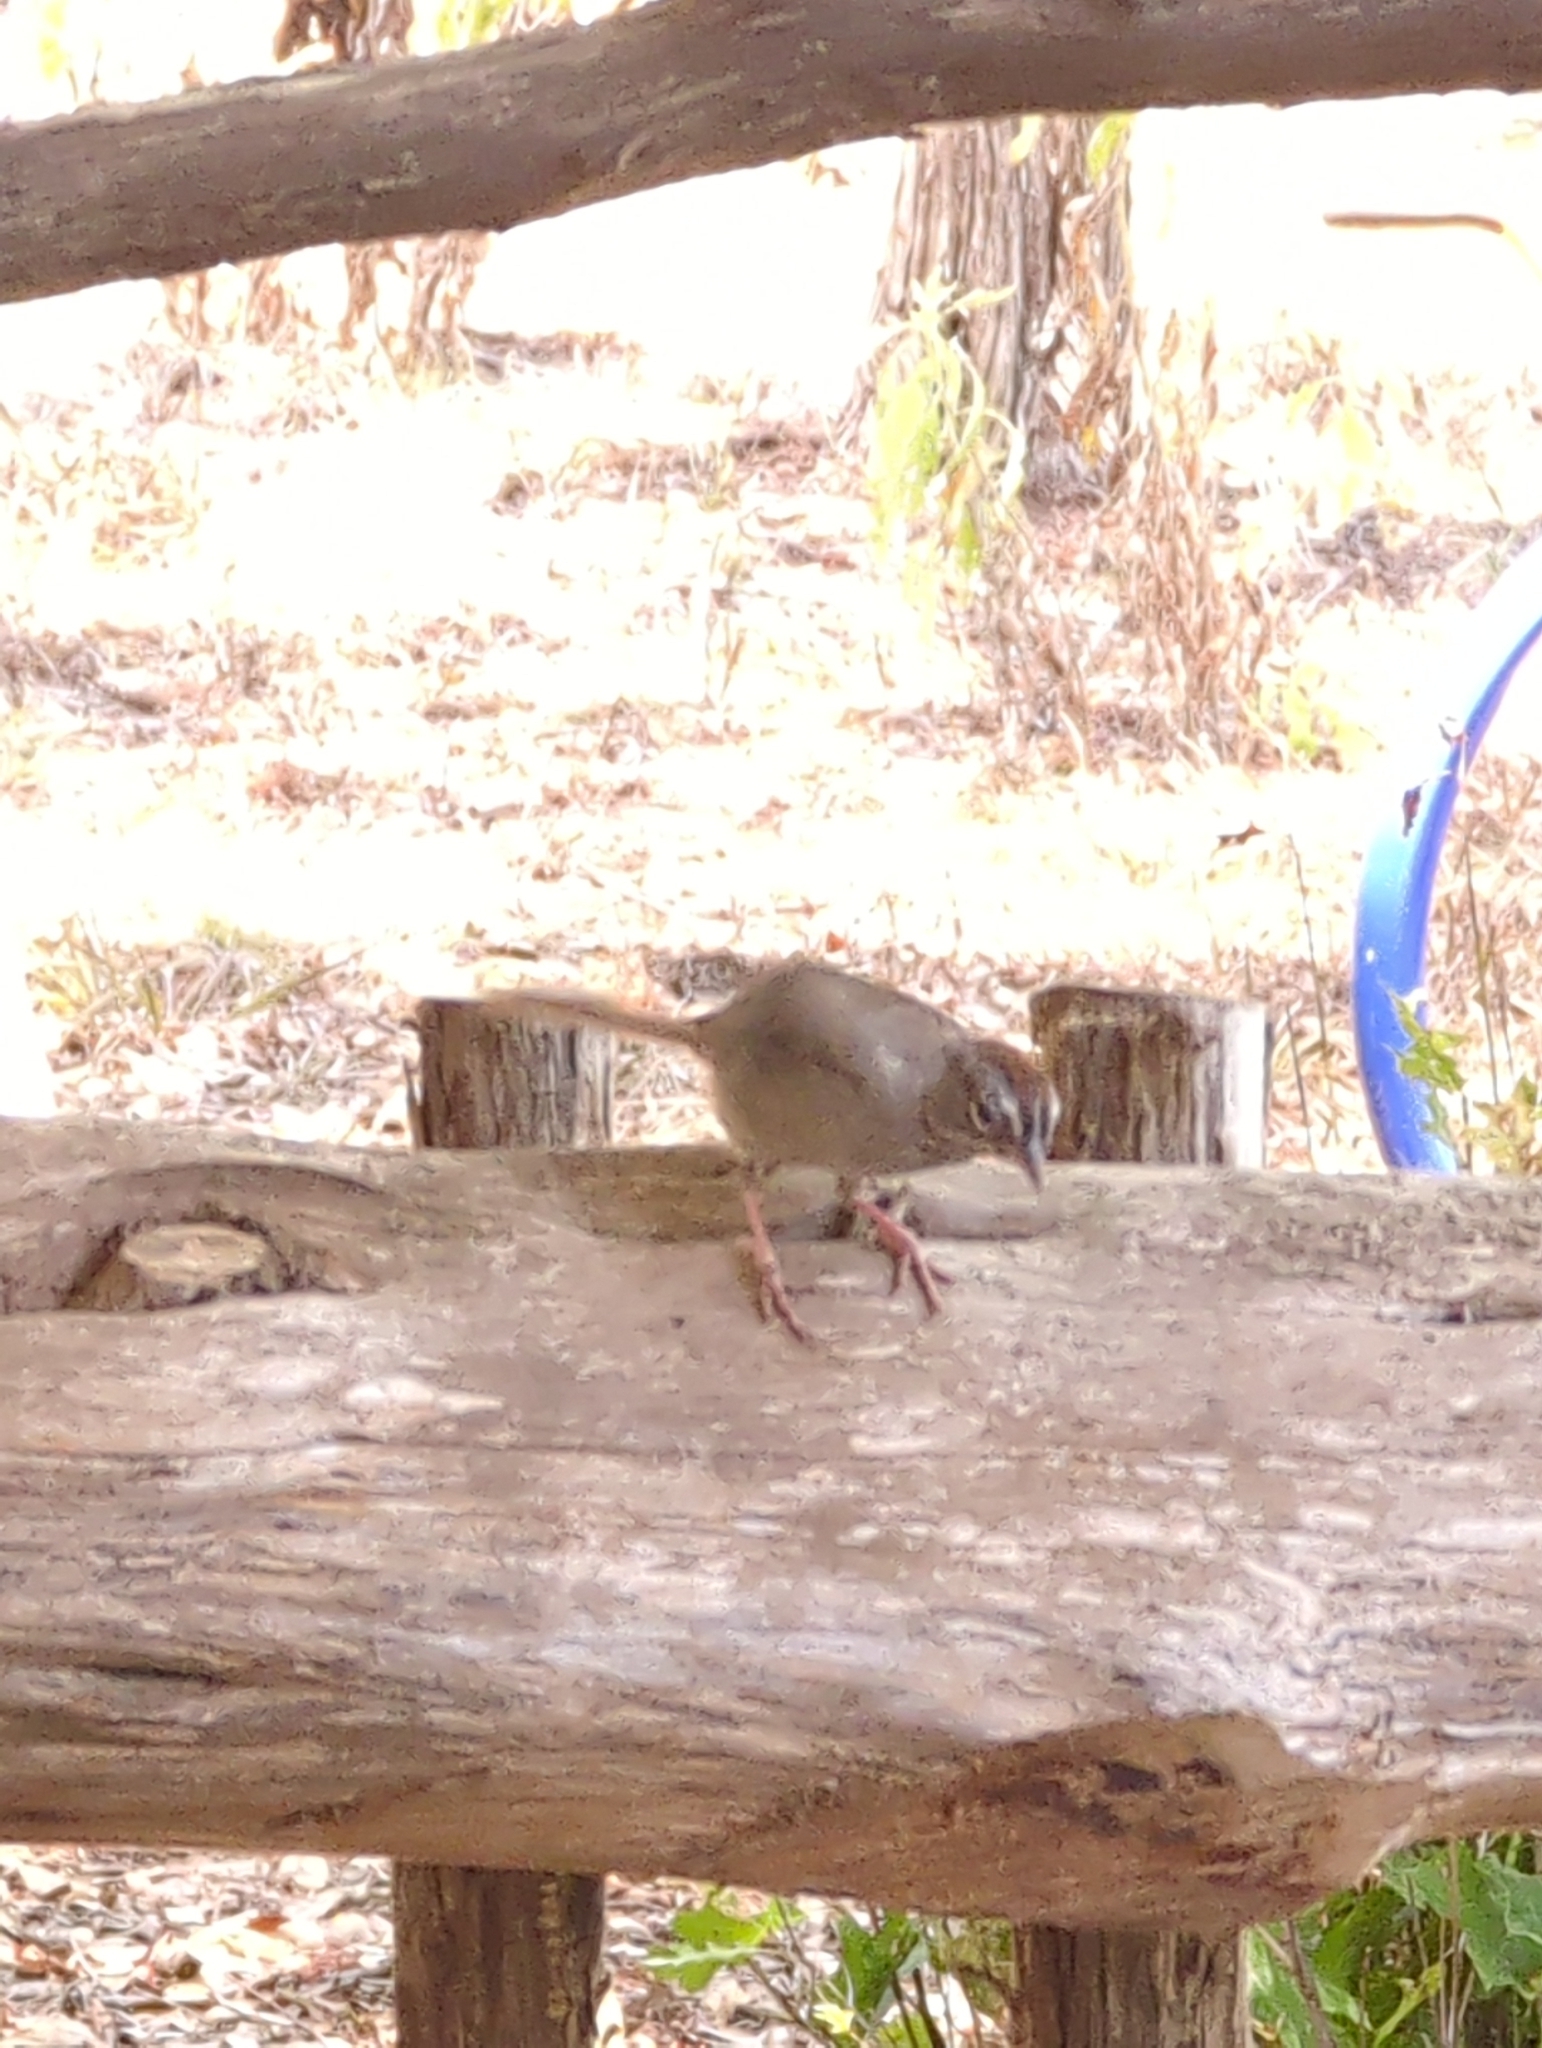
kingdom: Animalia
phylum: Chordata
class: Aves
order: Passeriformes
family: Passerellidae
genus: Aimophila
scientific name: Aimophila ruficeps
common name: Rufous-crowned sparrow
